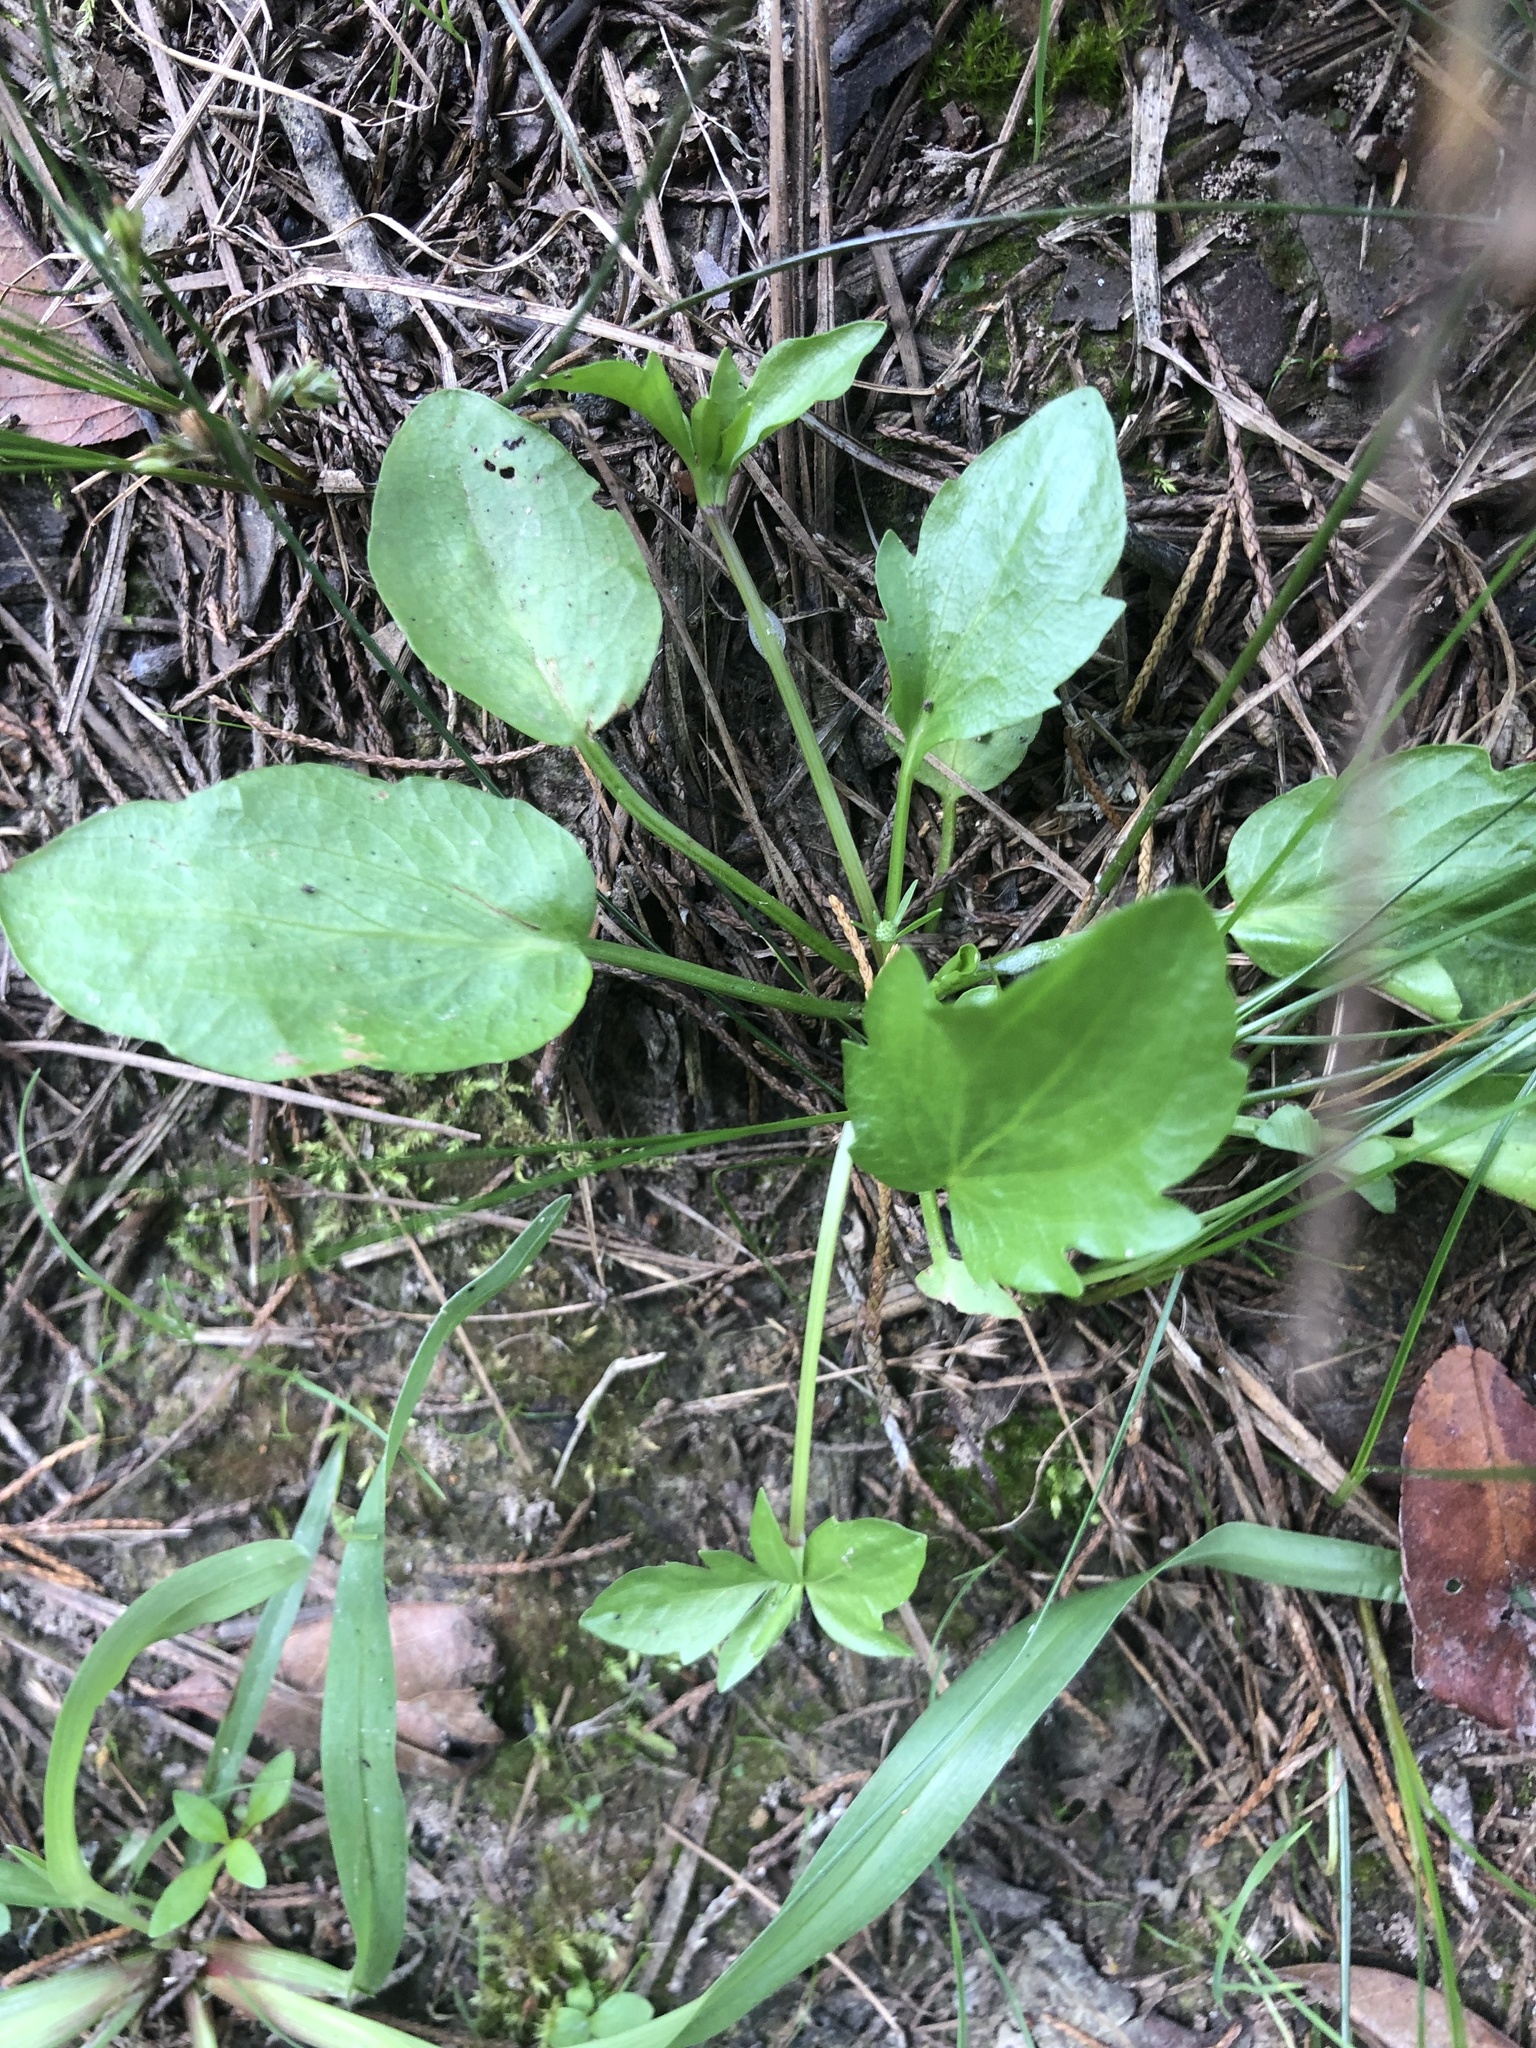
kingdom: Plantae
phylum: Tracheophyta
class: Magnoliopsida
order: Apiales
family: Apiaceae
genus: Eryngium
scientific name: Eryngium prostratum
